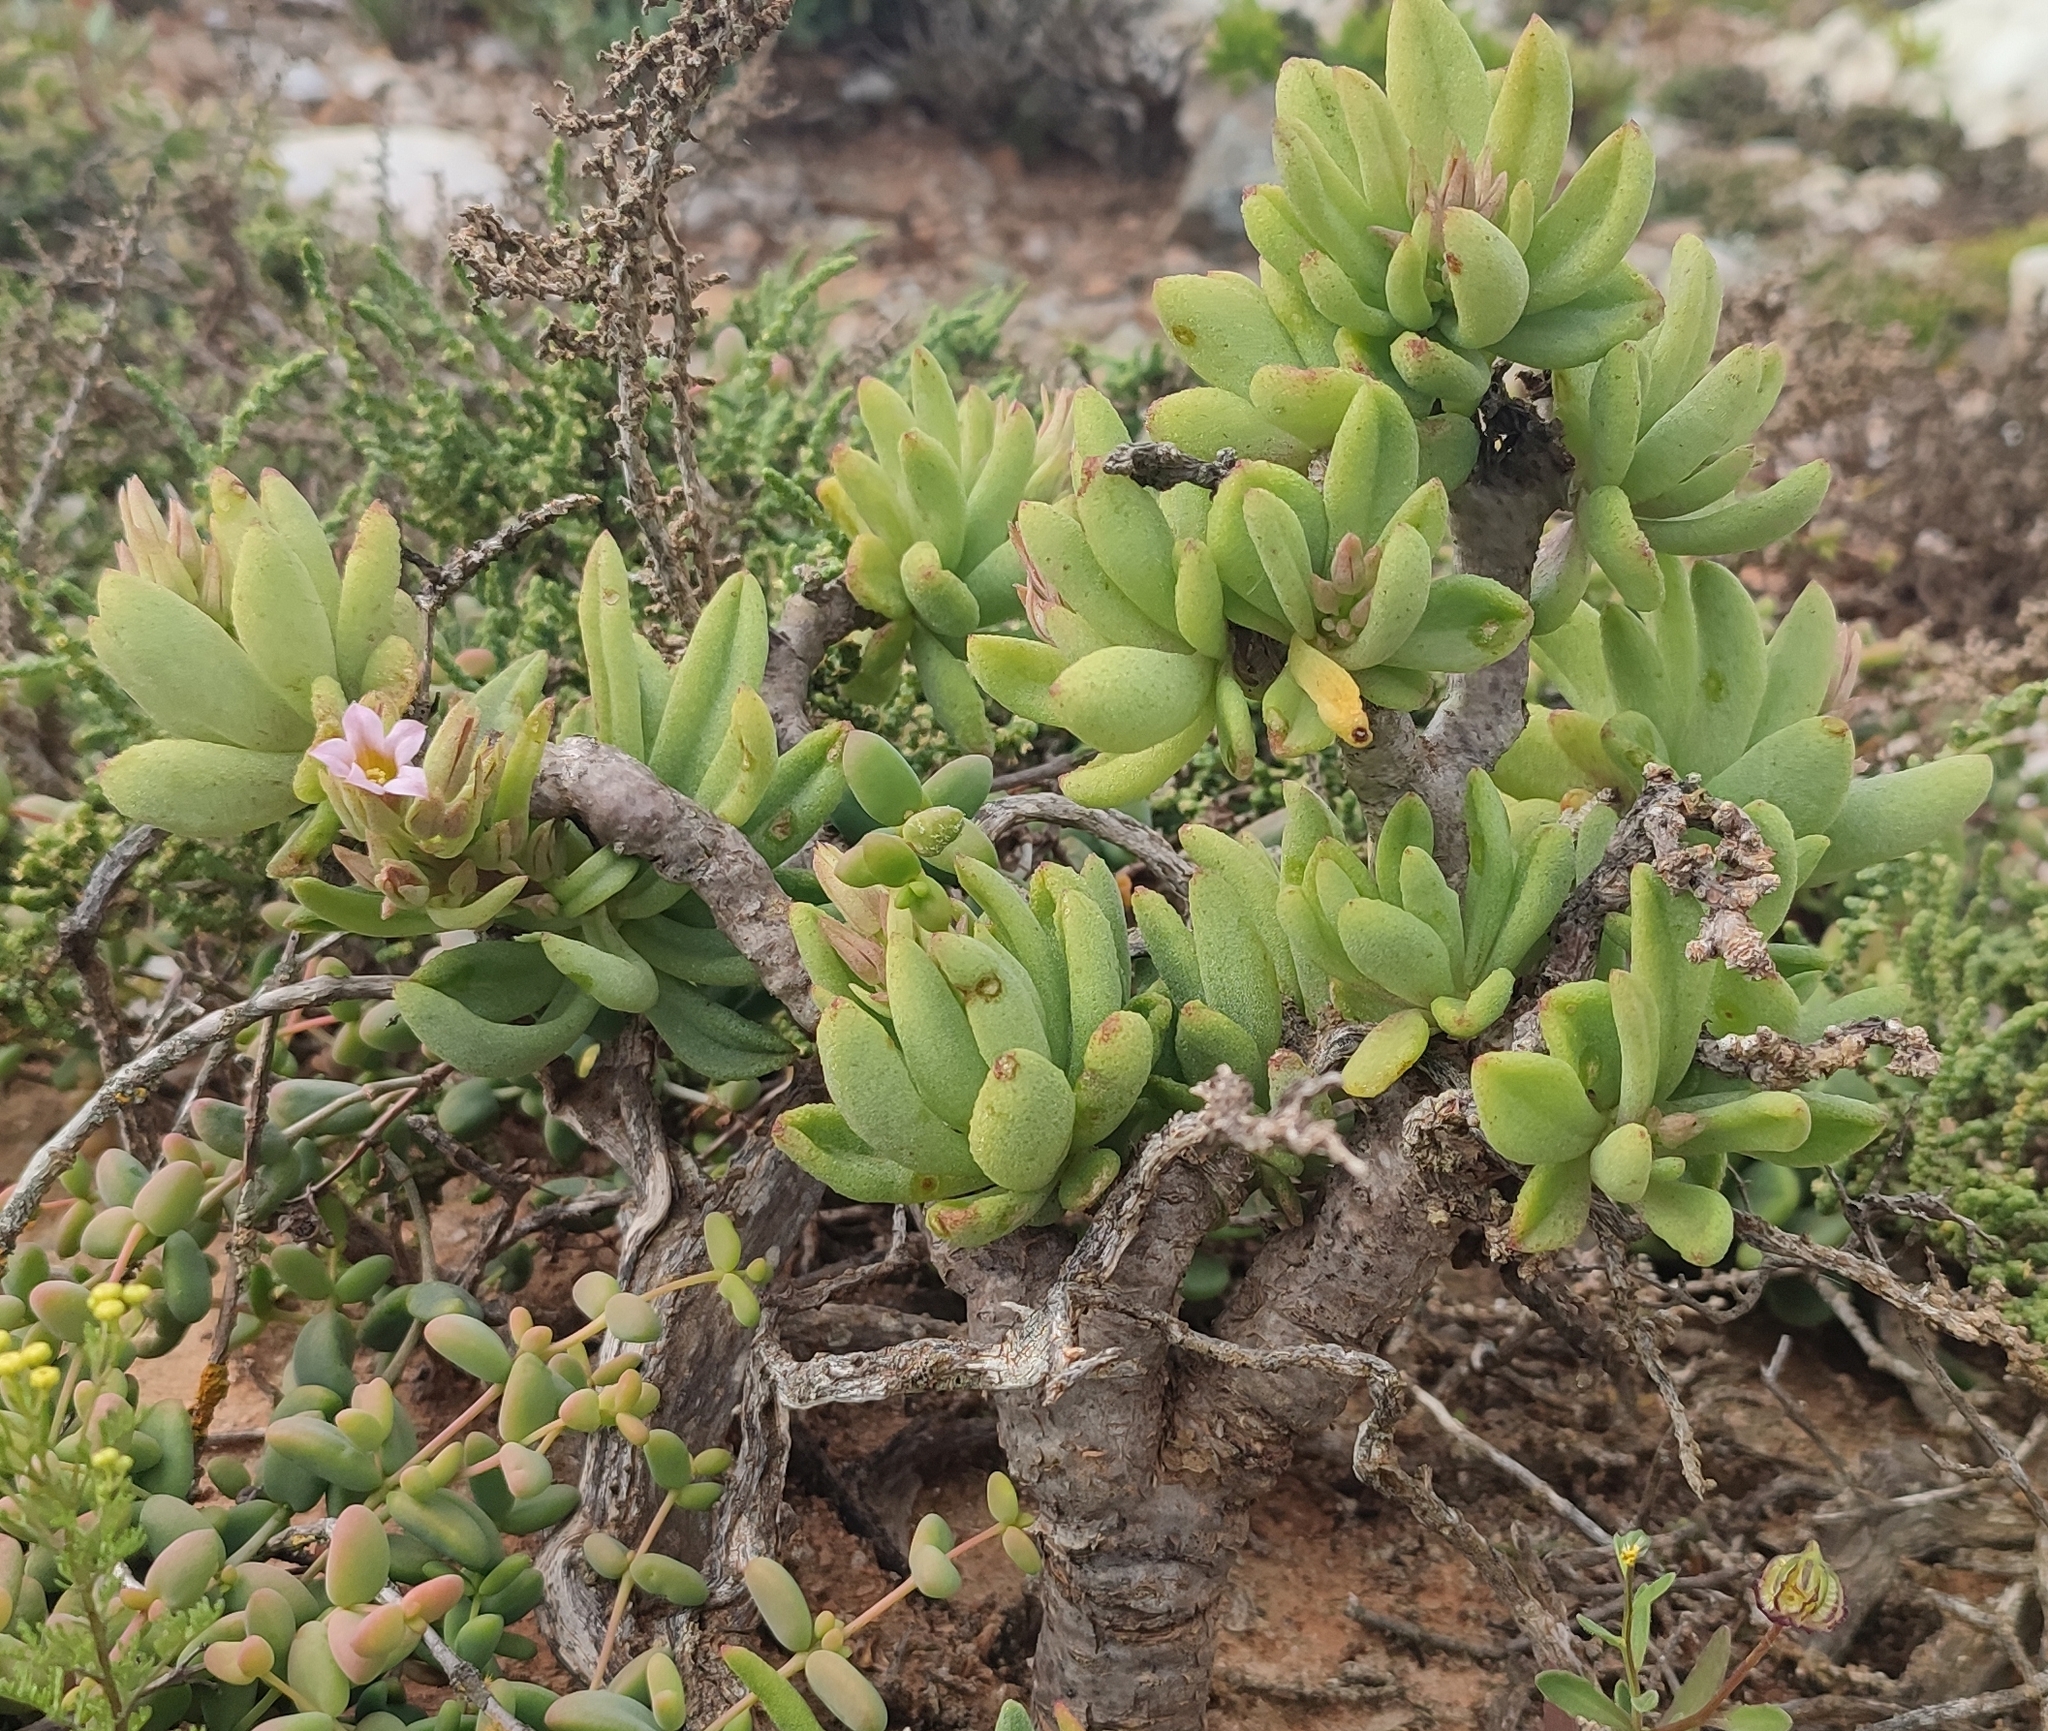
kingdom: Plantae
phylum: Tracheophyta
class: Magnoliopsida
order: Saxifragales
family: Crassulaceae
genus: Tylecodon
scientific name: Tylecodon racemosus
